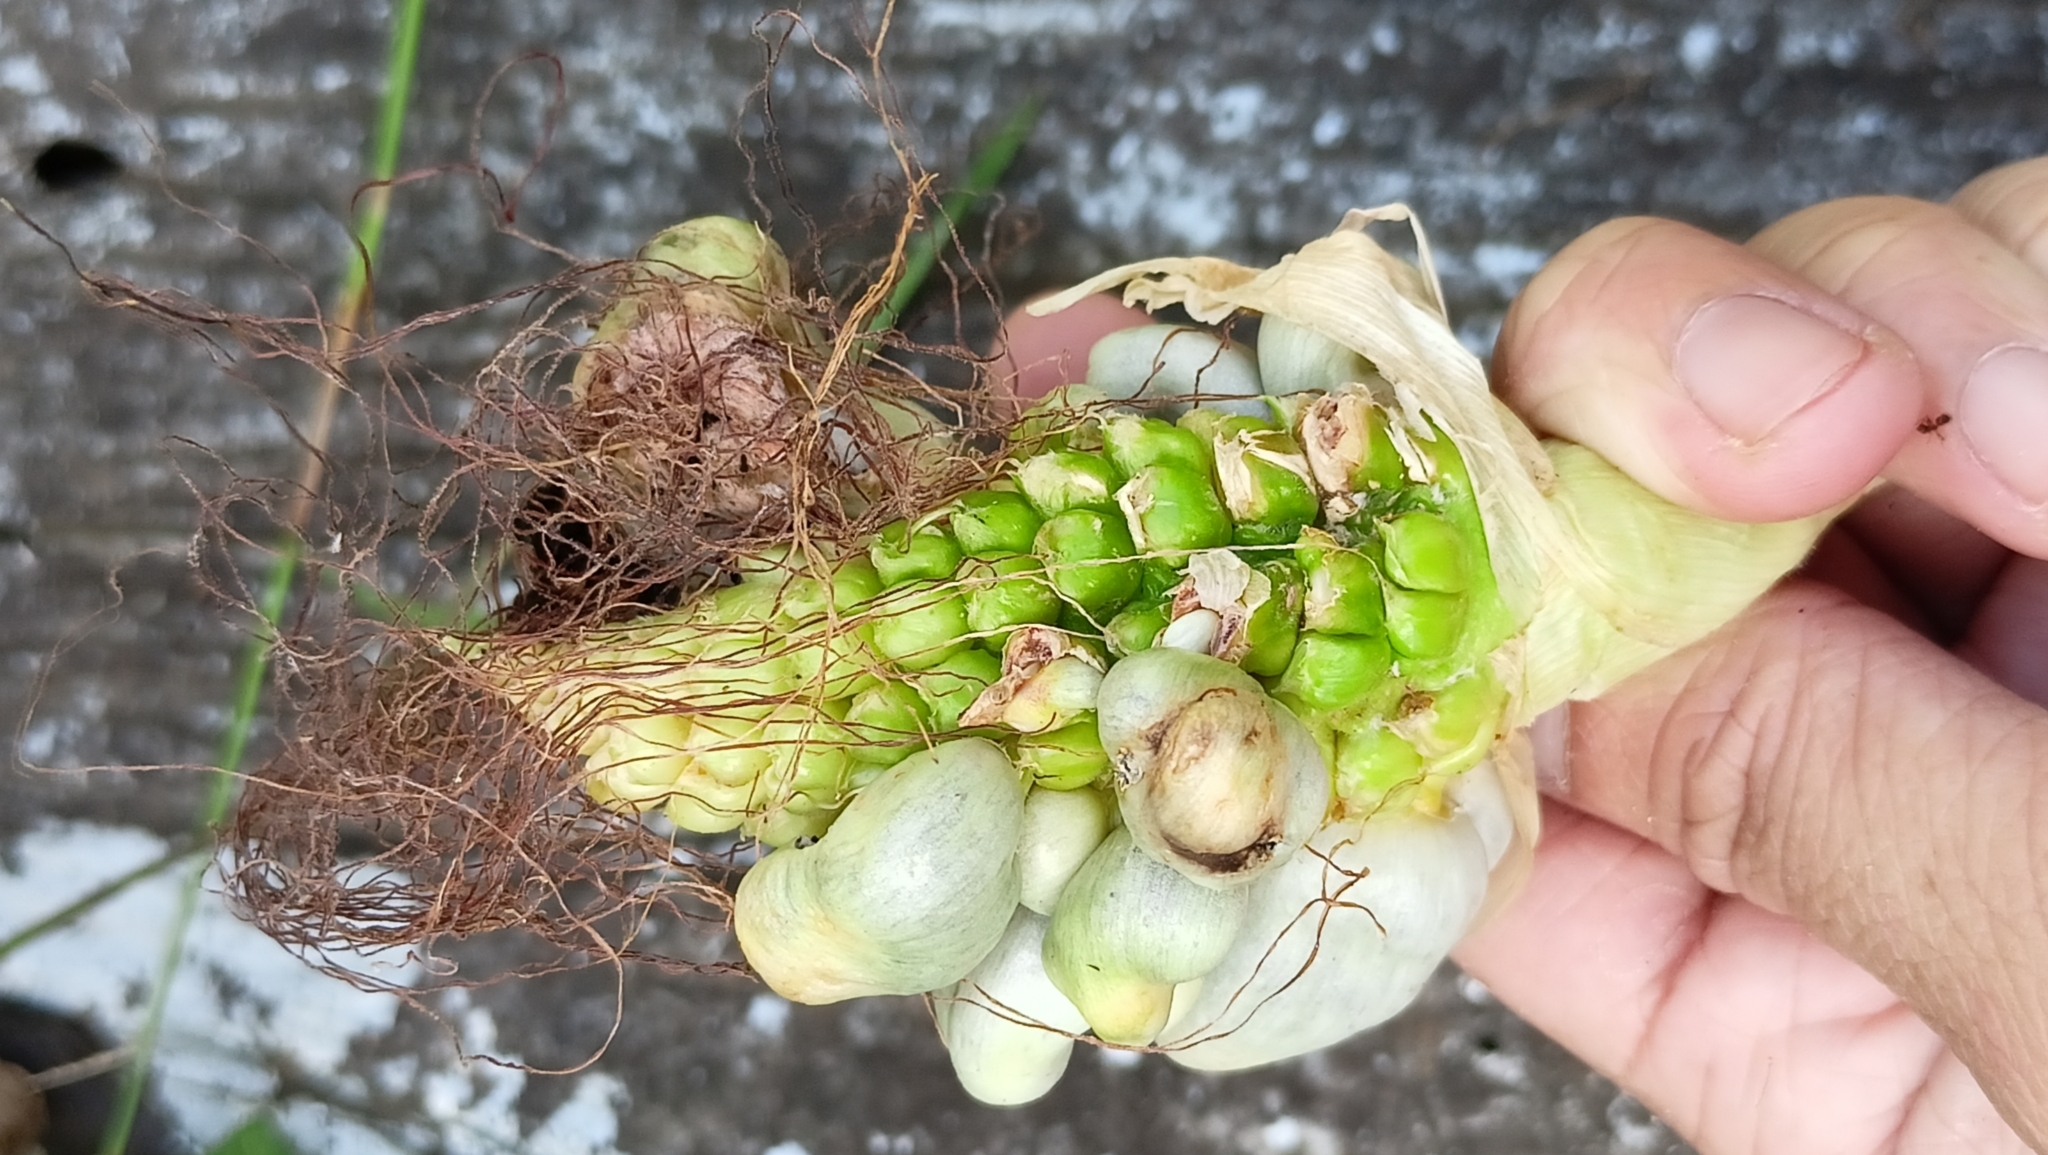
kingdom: Fungi
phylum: Basidiomycota
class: Ustilaginomycetes
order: Ustilaginales
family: Ustilaginaceae
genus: Mycosarcoma
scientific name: Mycosarcoma maydis
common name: Corn smut
